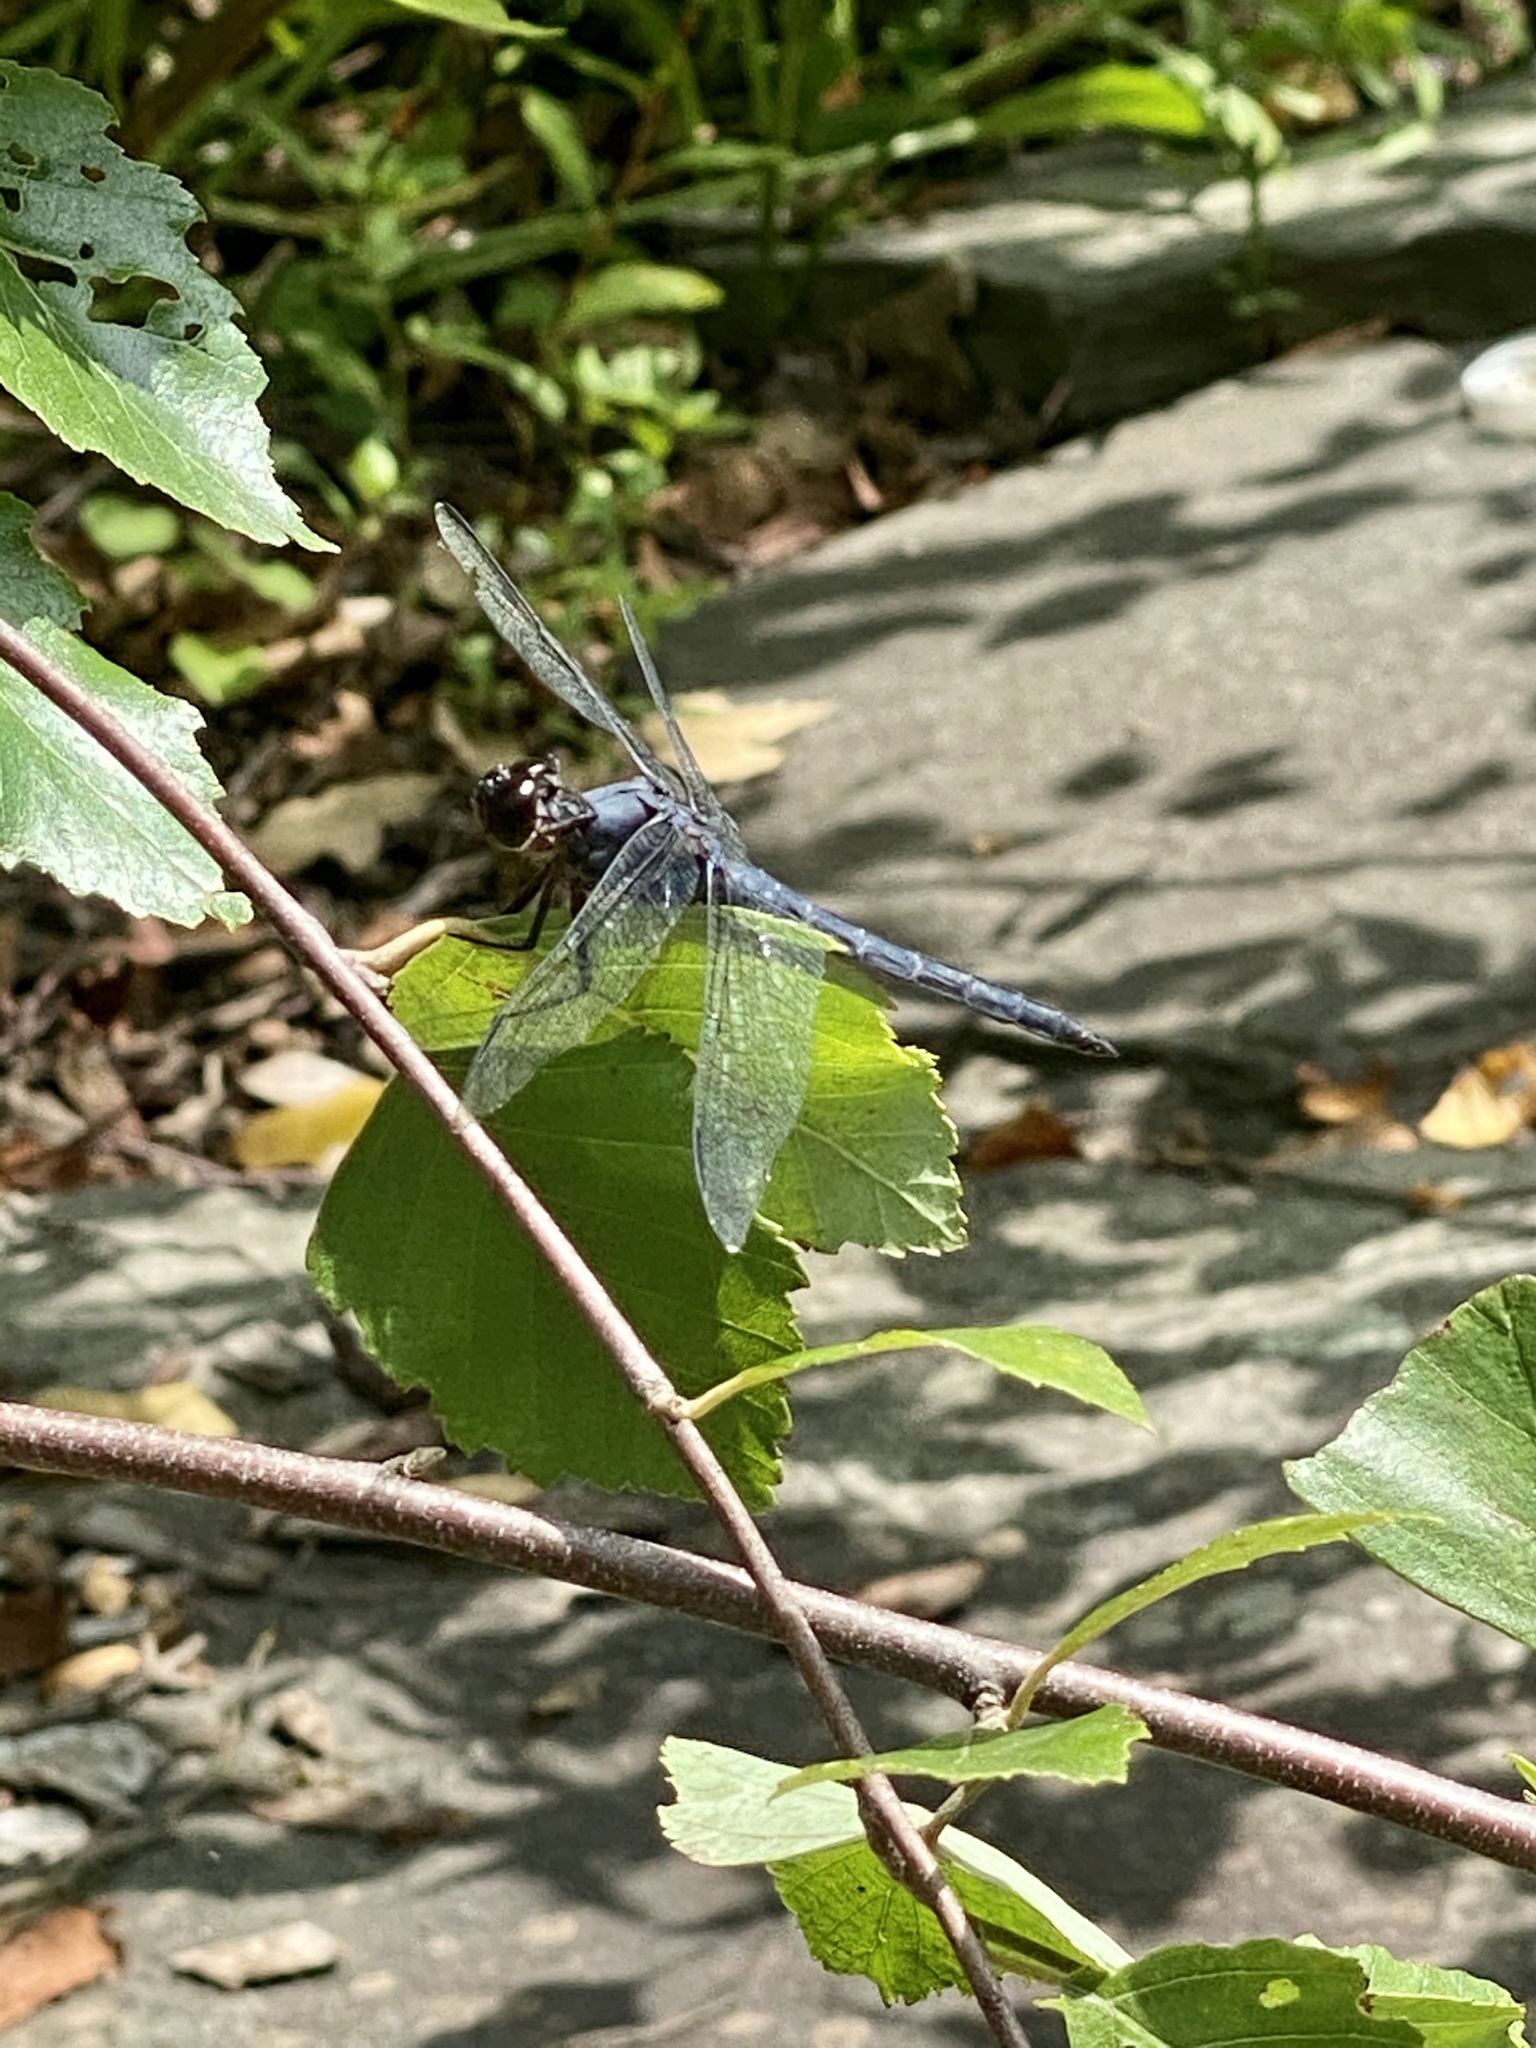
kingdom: Animalia
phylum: Arthropoda
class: Insecta
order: Odonata
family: Libellulidae
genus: Libellula
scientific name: Libellula incesta
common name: Slaty skimmer
